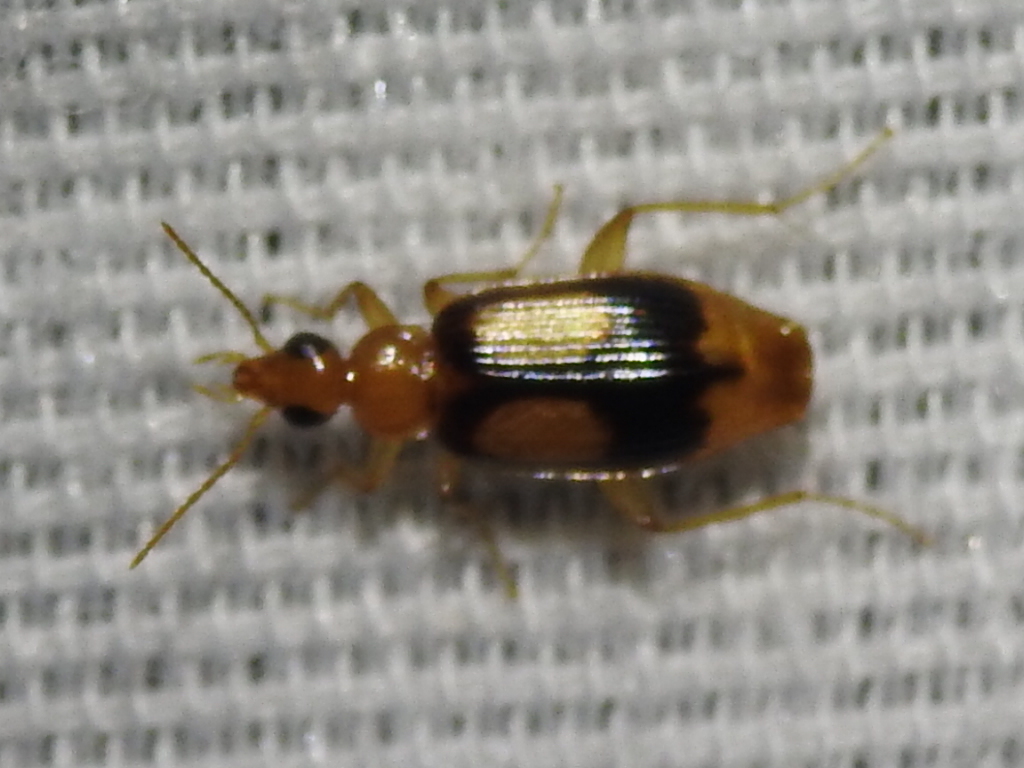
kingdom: Animalia
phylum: Arthropoda
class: Insecta
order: Coleoptera
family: Carabidae
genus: Nemotarsus
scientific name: Nemotarsus elegans
